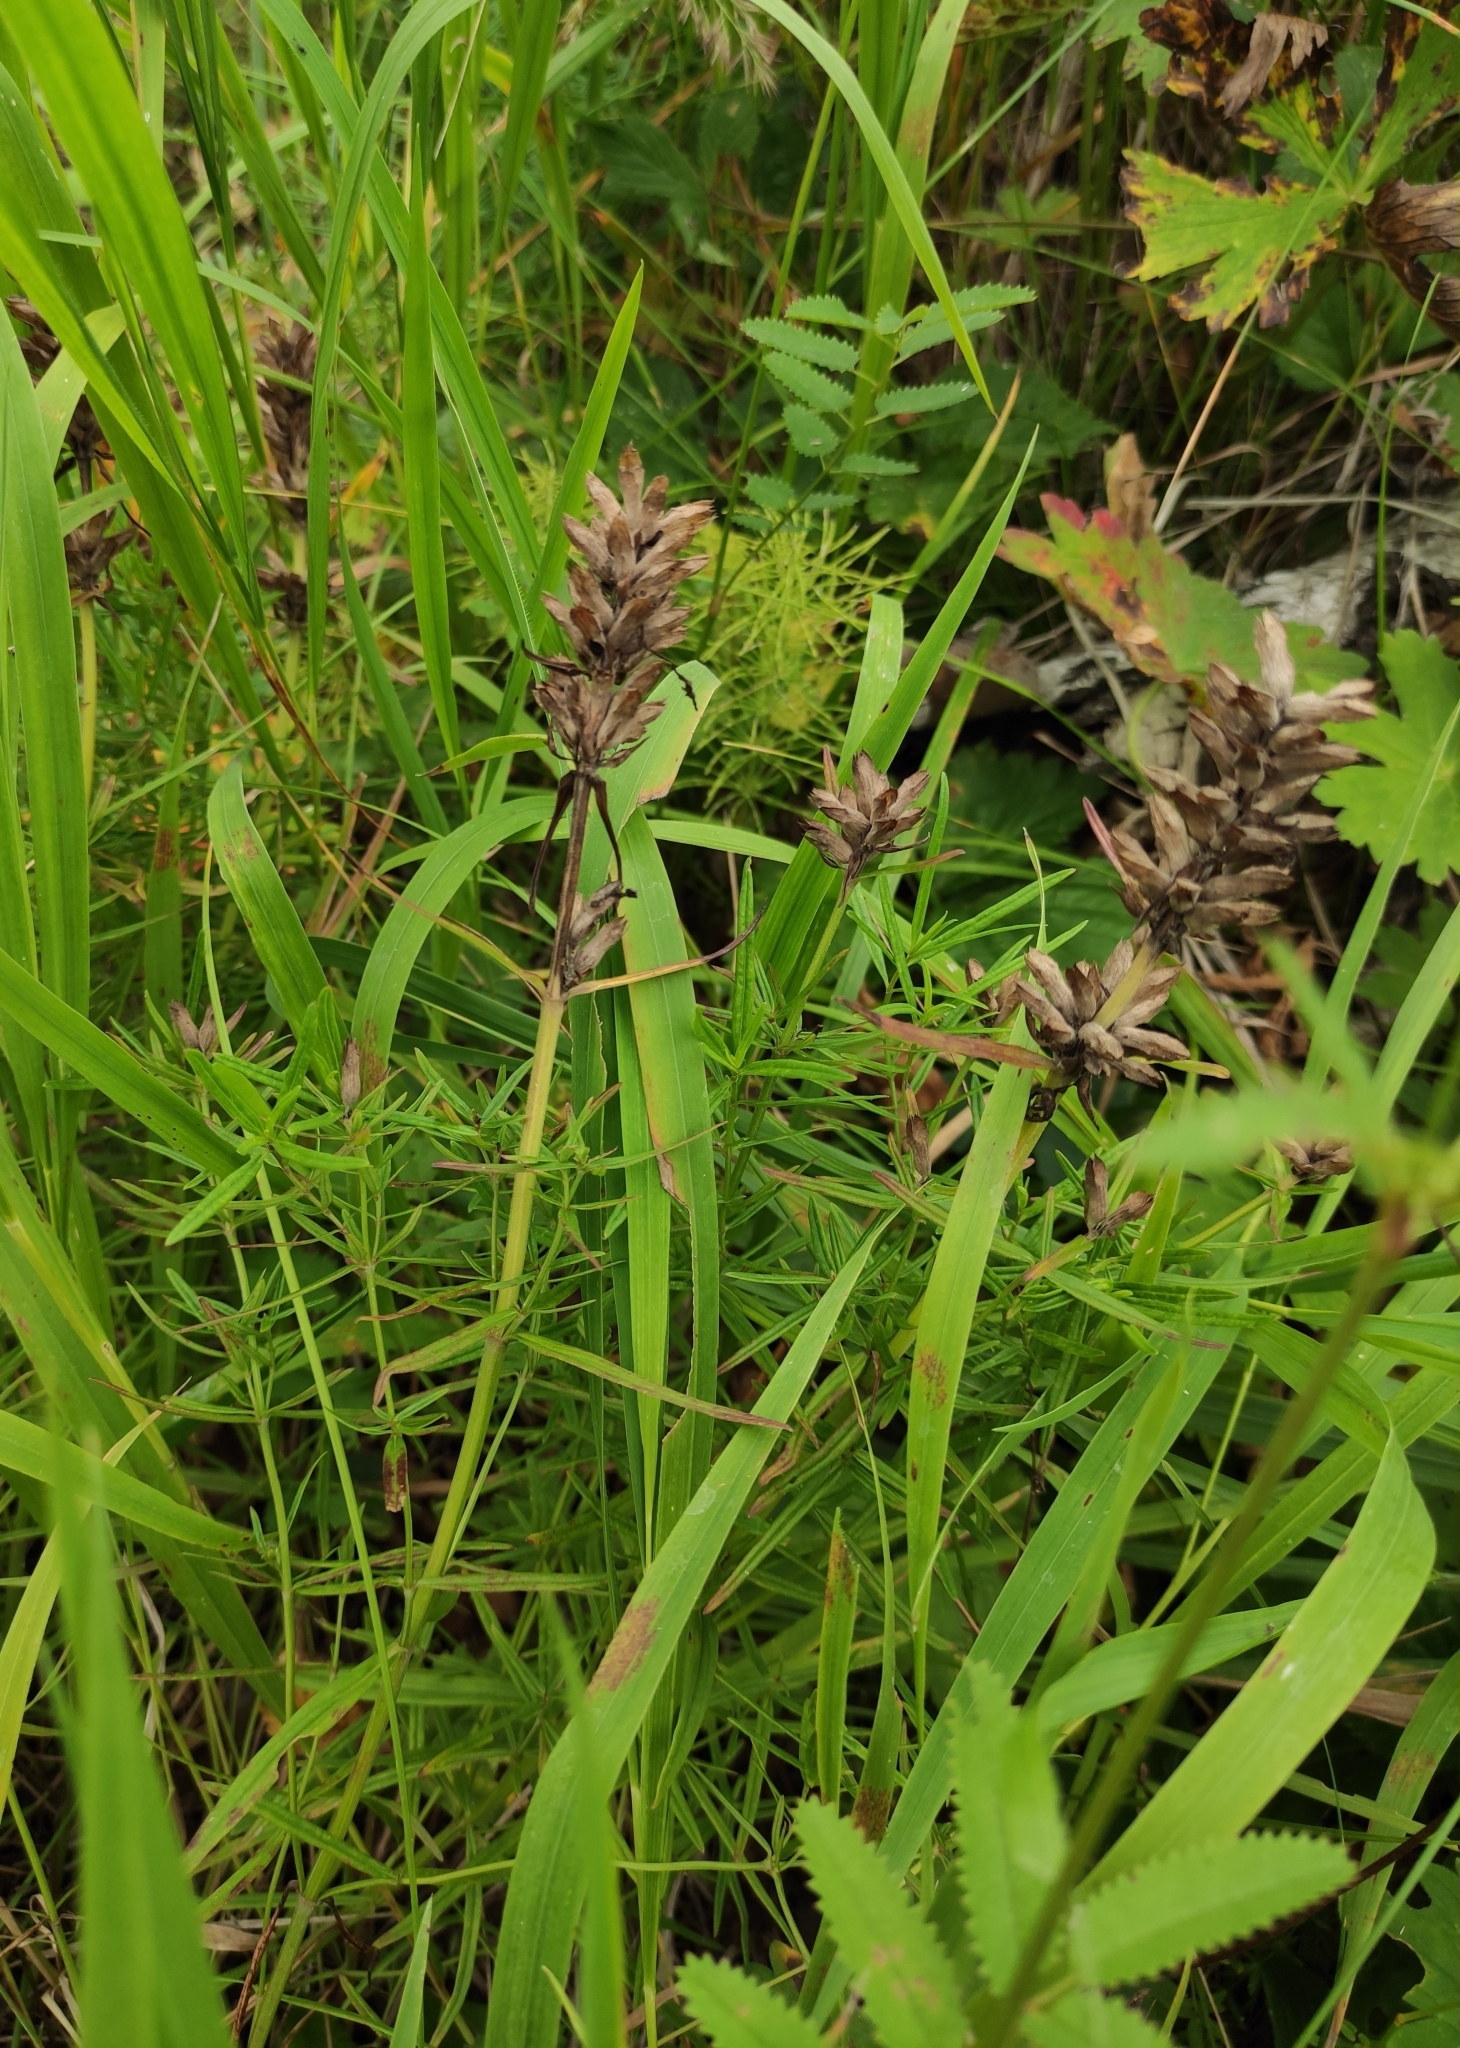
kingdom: Plantae
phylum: Tracheophyta
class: Magnoliopsida
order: Lamiales
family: Lamiaceae
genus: Dracocephalum
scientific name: Dracocephalum ruyschiana
